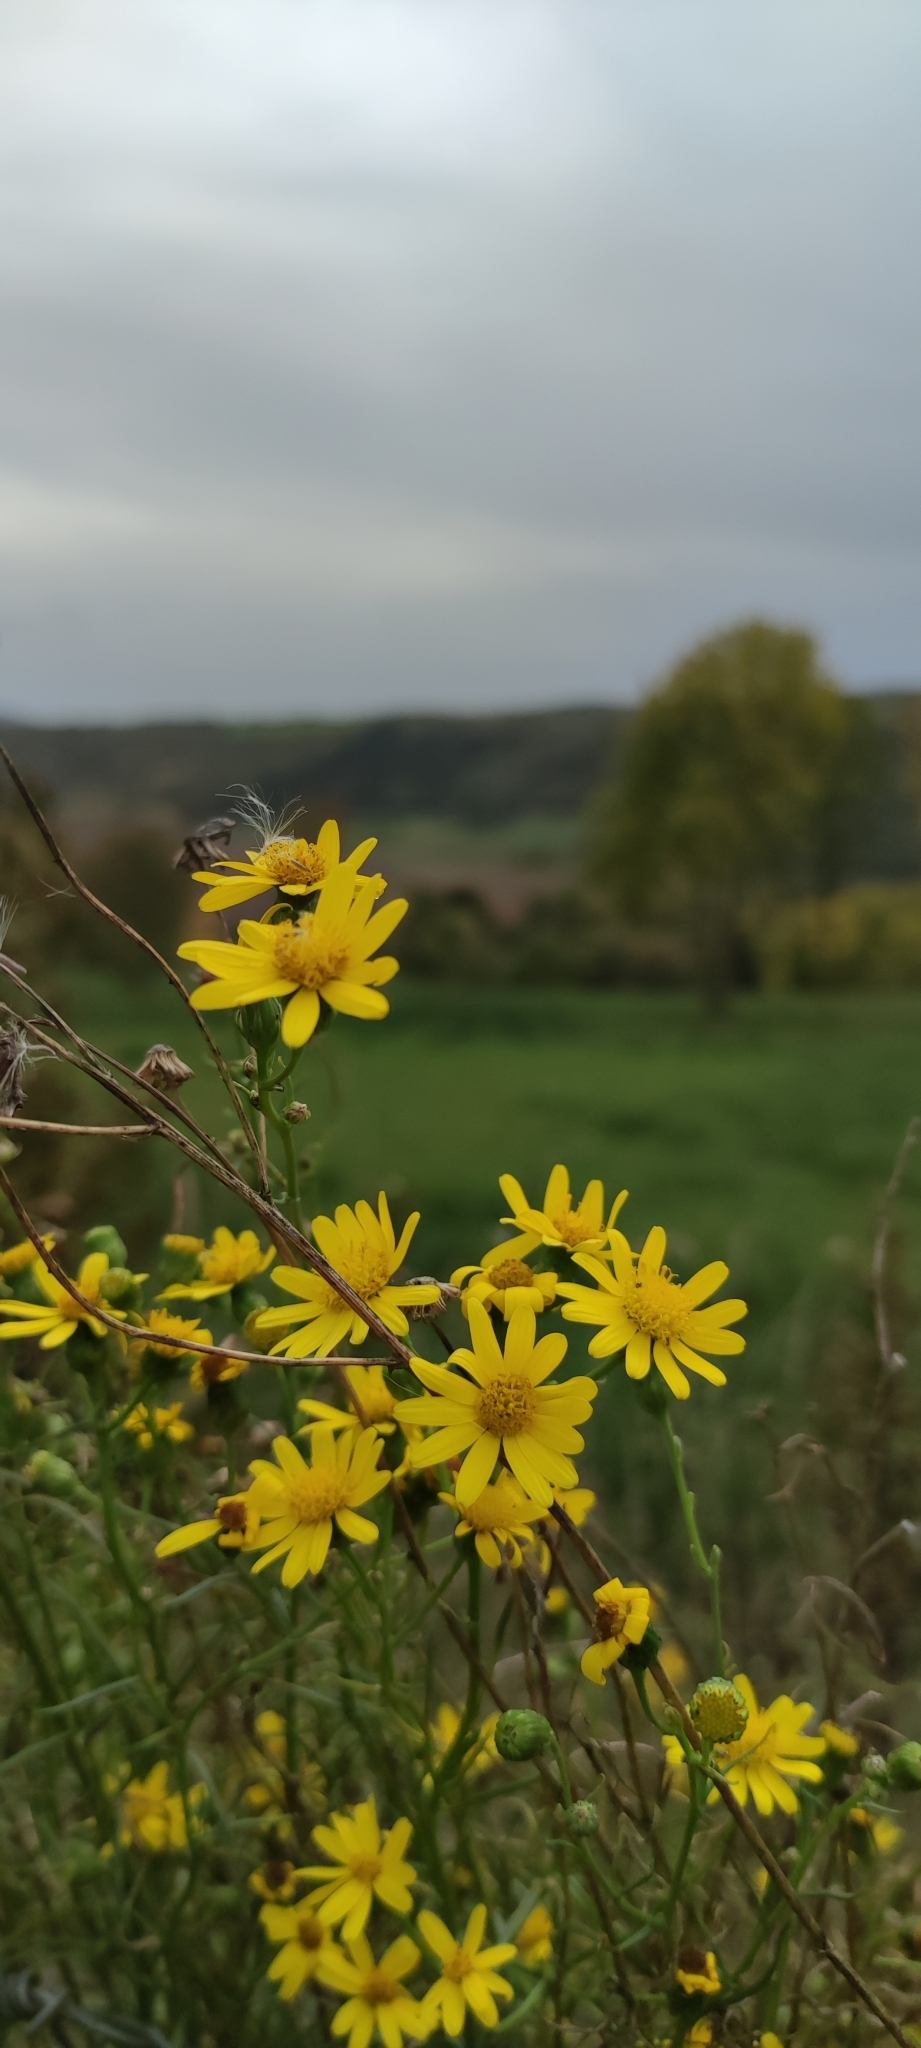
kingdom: Plantae
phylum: Tracheophyta
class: Magnoliopsida
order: Asterales
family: Asteraceae
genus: Senecio
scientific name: Senecio inaequidens
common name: Narrow-leaved ragwort
